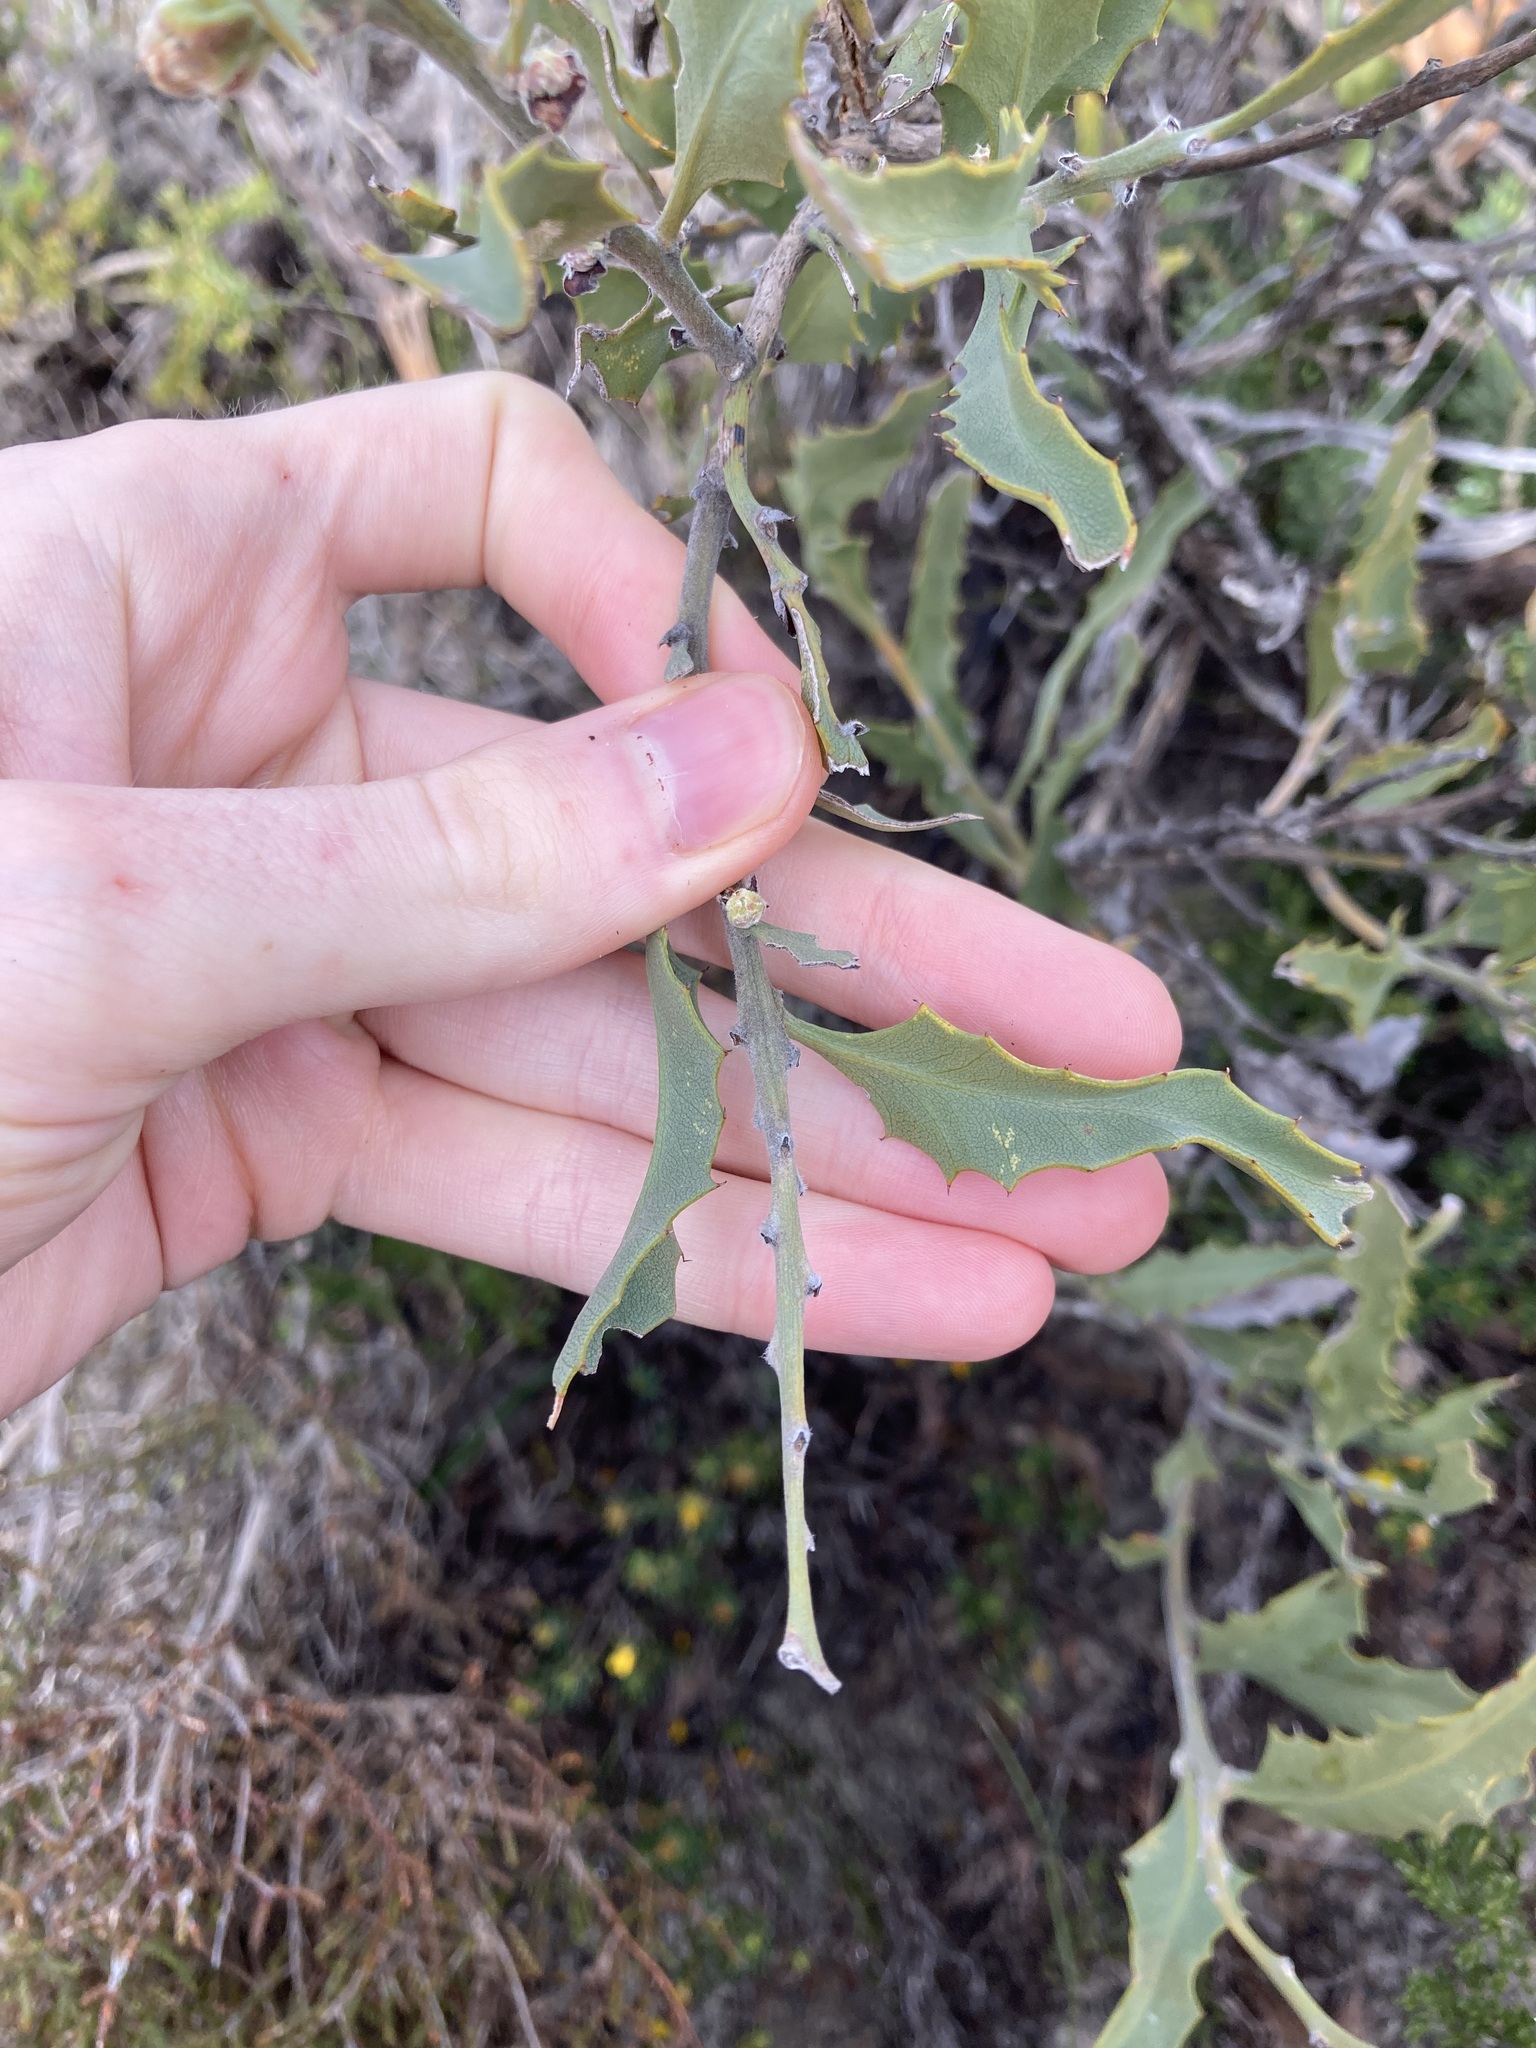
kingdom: Plantae
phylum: Tracheophyta
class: Magnoliopsida
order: Fabales
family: Fabaceae
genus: Jacksonia
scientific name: Jacksonia floribunda
